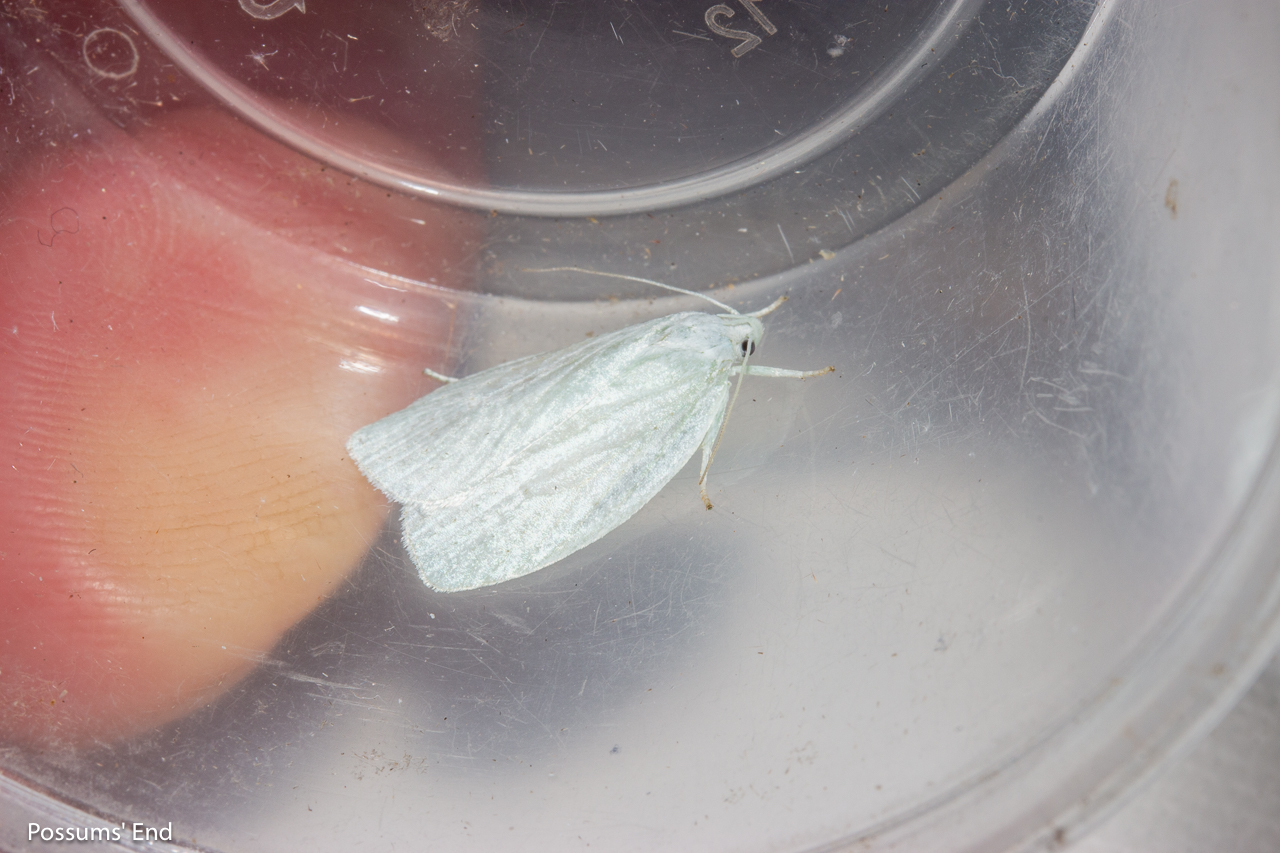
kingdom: Animalia
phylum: Arthropoda
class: Insecta
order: Lepidoptera
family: Oecophoridae
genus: Nymphostola
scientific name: Nymphostola galactina
